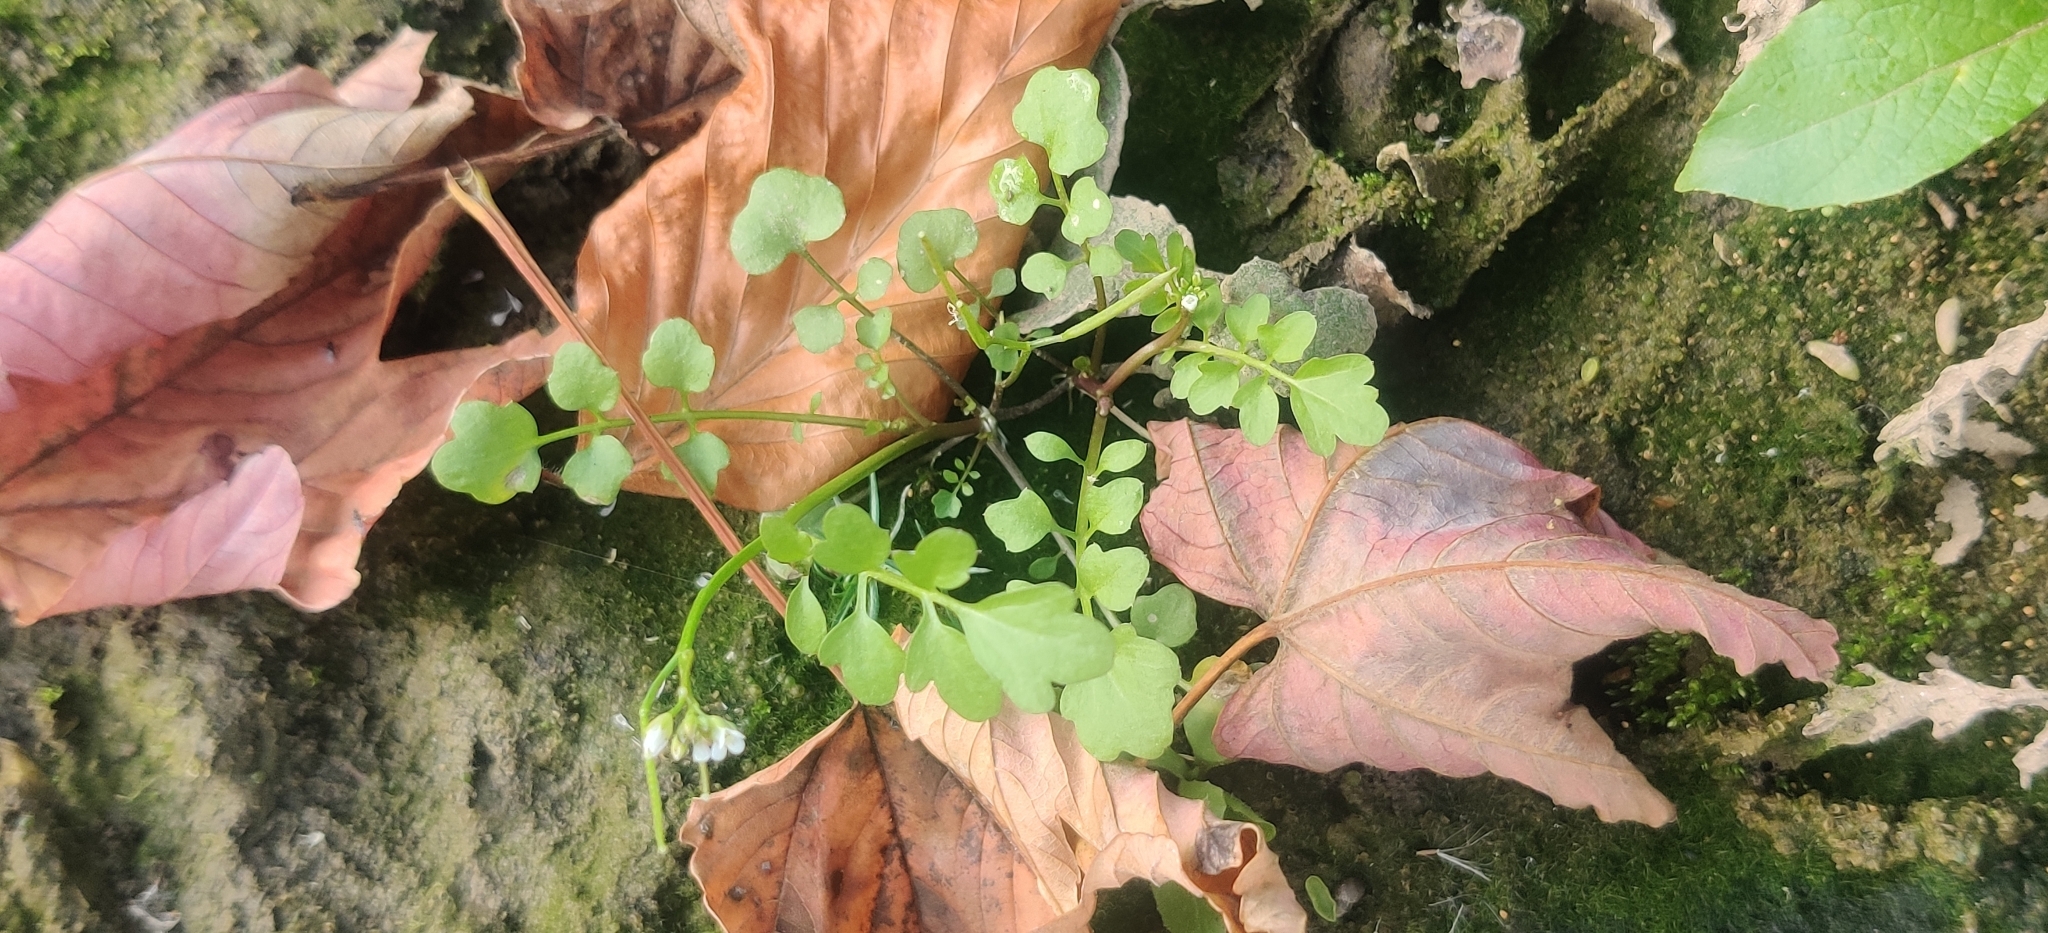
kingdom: Plantae
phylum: Tracheophyta
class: Magnoliopsida
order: Brassicales
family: Brassicaceae
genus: Cardamine
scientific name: Cardamine occulta
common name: Asian wavy bittercress
